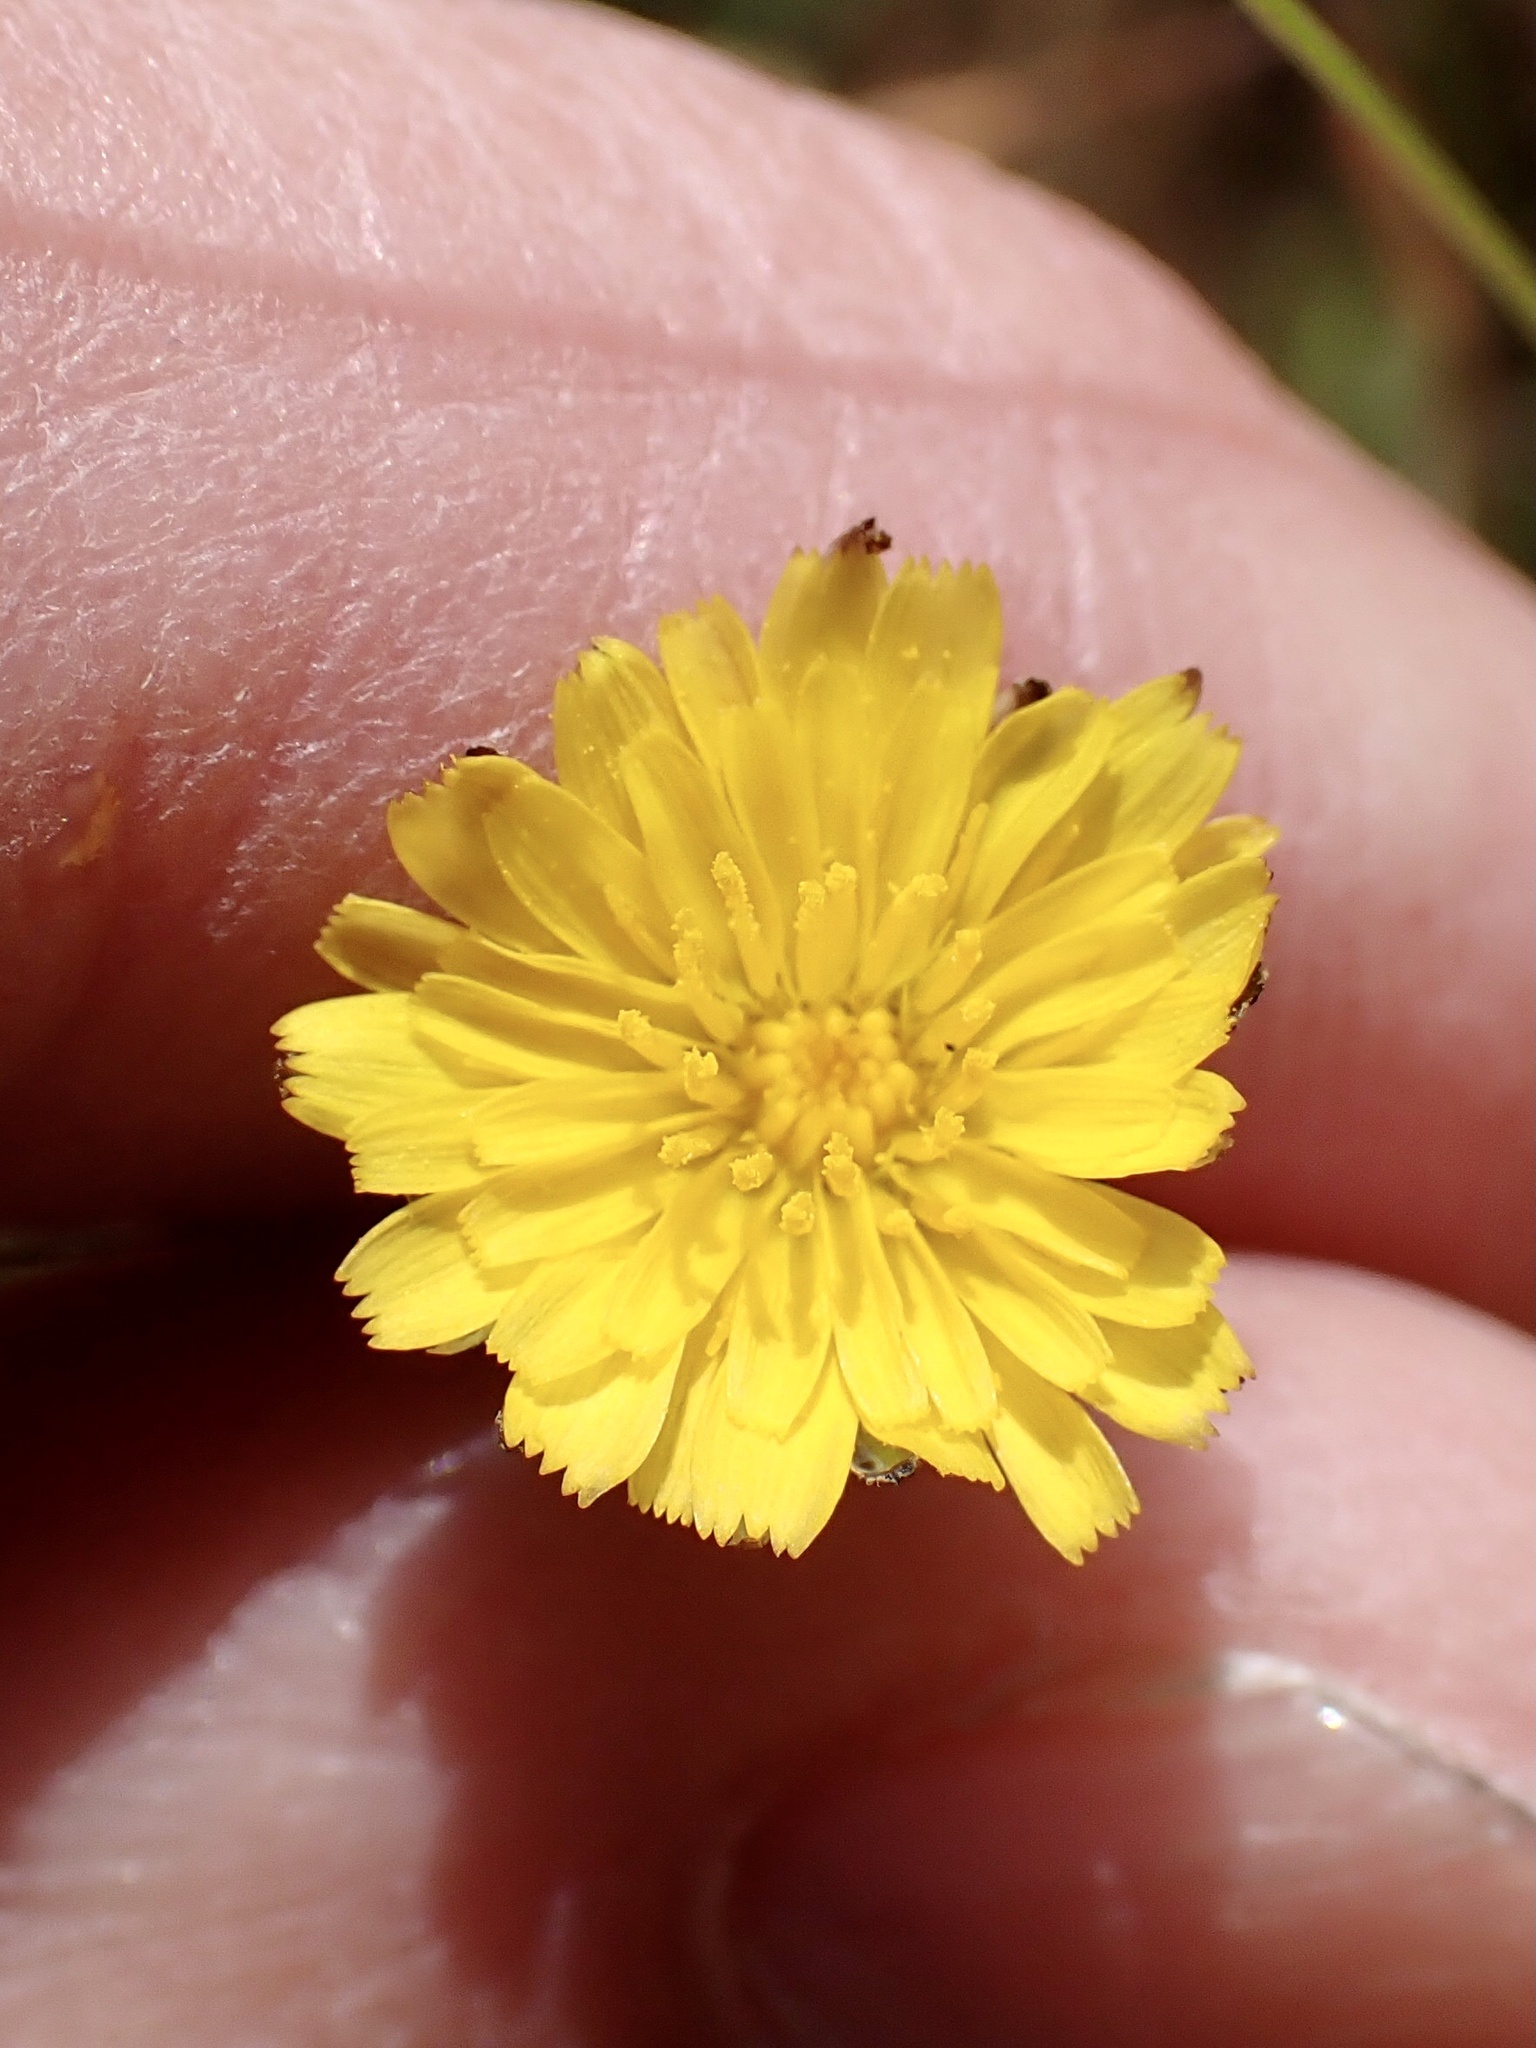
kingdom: Plantae
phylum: Tracheophyta
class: Magnoliopsida
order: Asterales
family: Asteraceae
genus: Hypochaeris
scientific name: Hypochaeris glabra
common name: Smooth catsear
